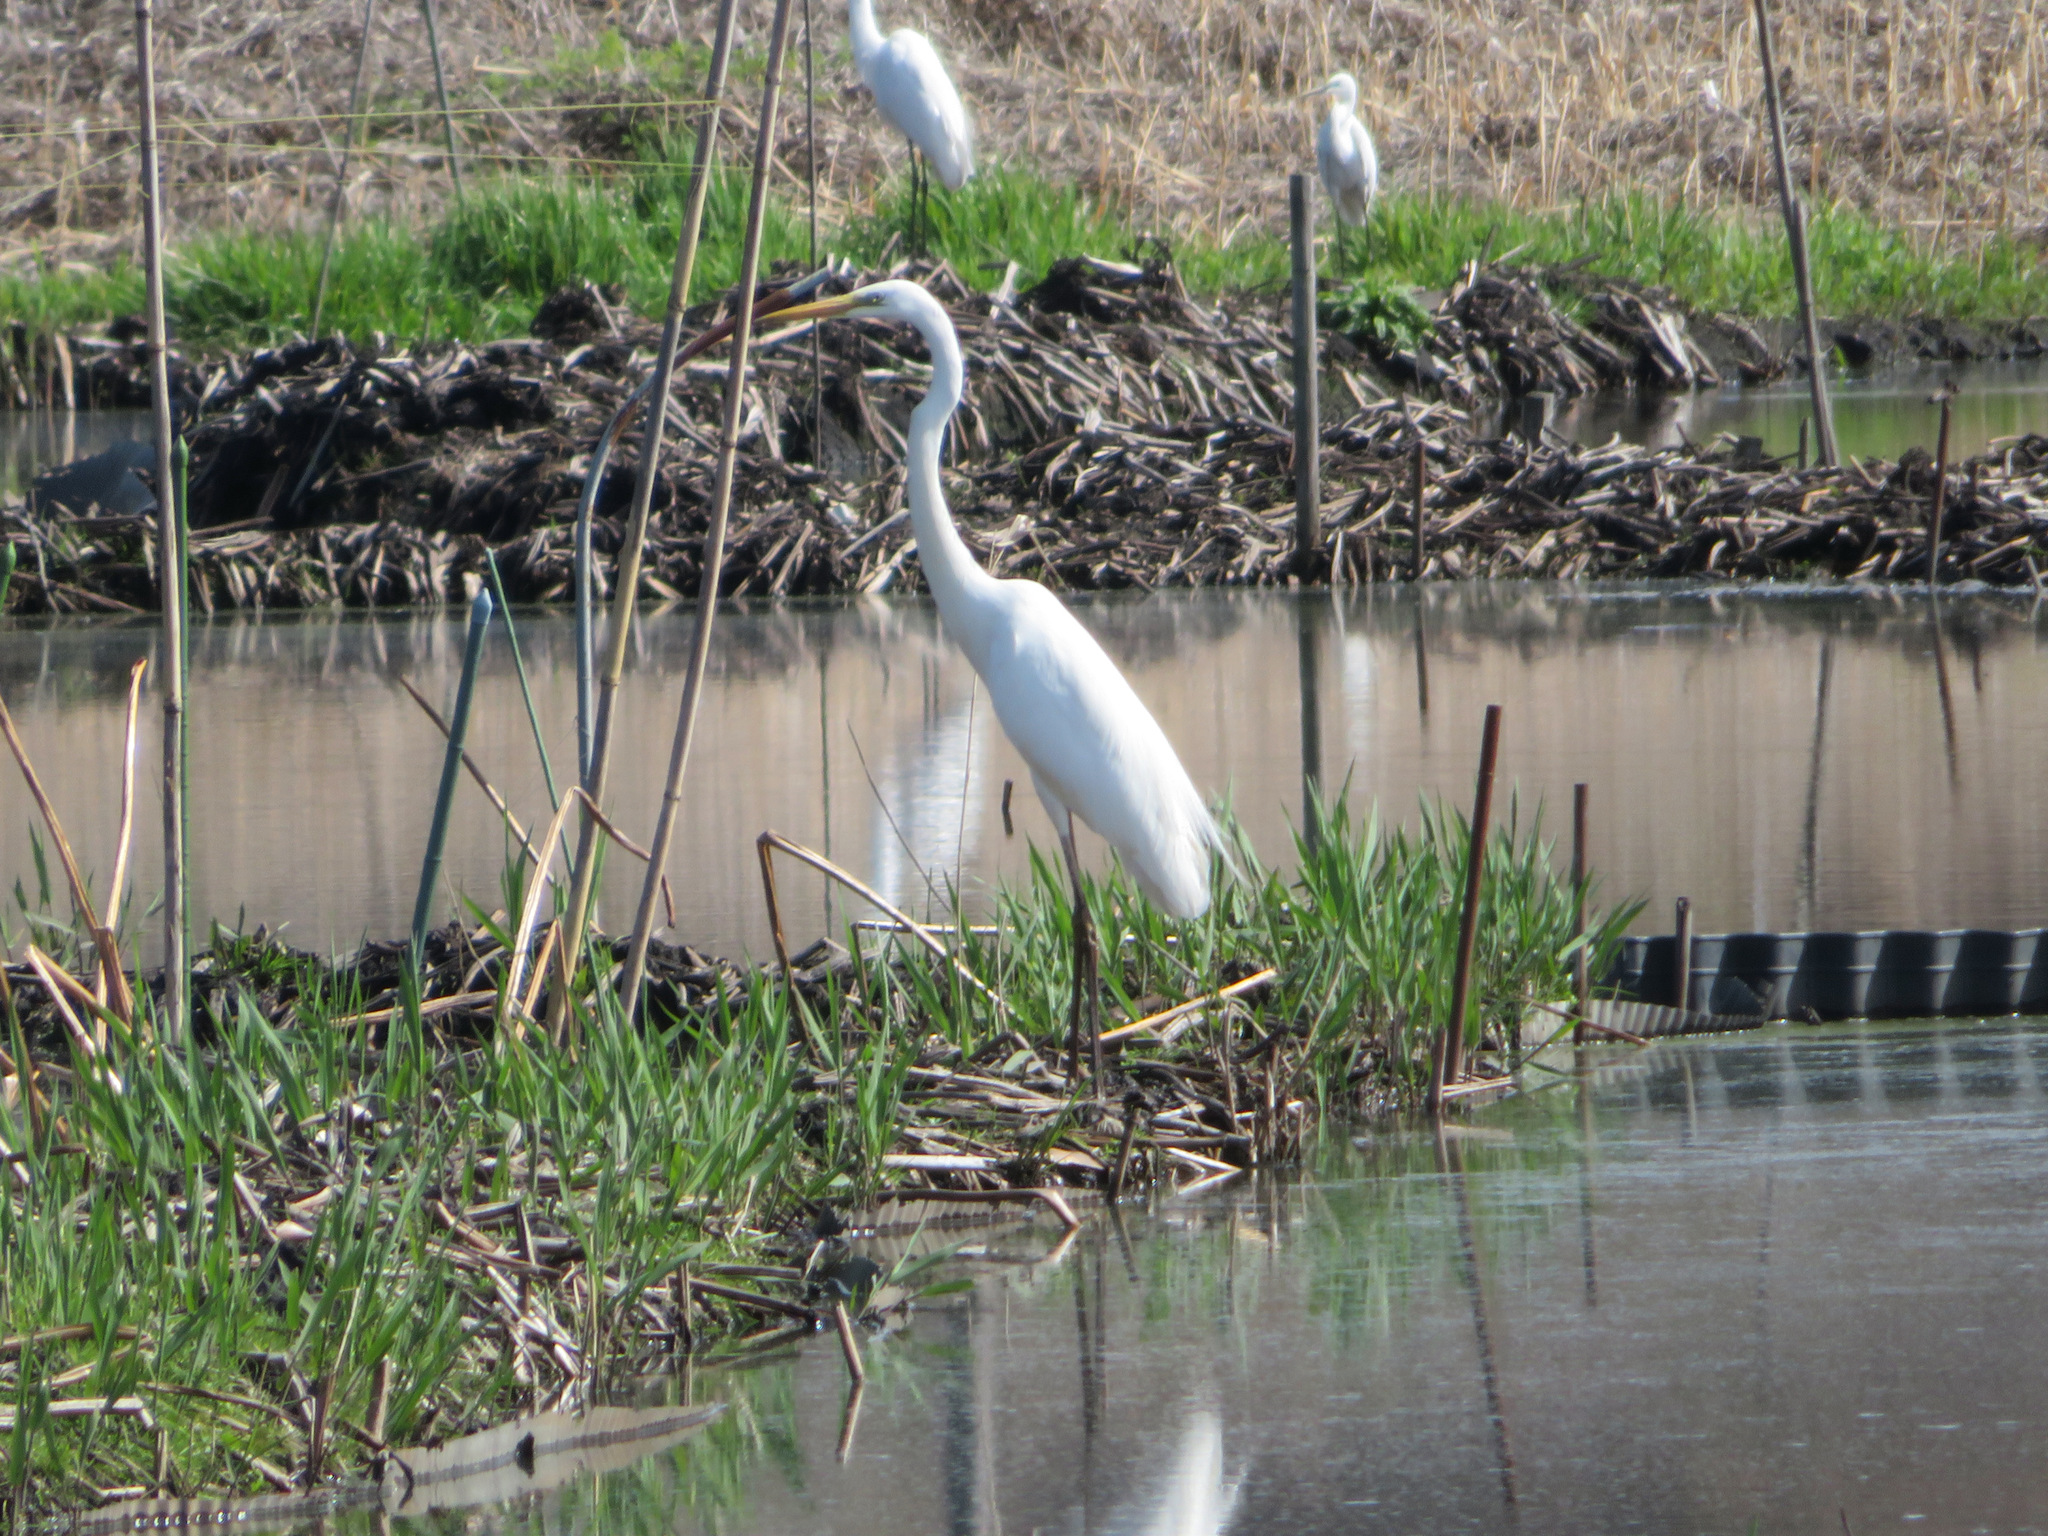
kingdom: Animalia
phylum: Chordata
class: Aves
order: Pelecaniformes
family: Ardeidae
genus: Ardea
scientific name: Ardea alba
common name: Great egret
